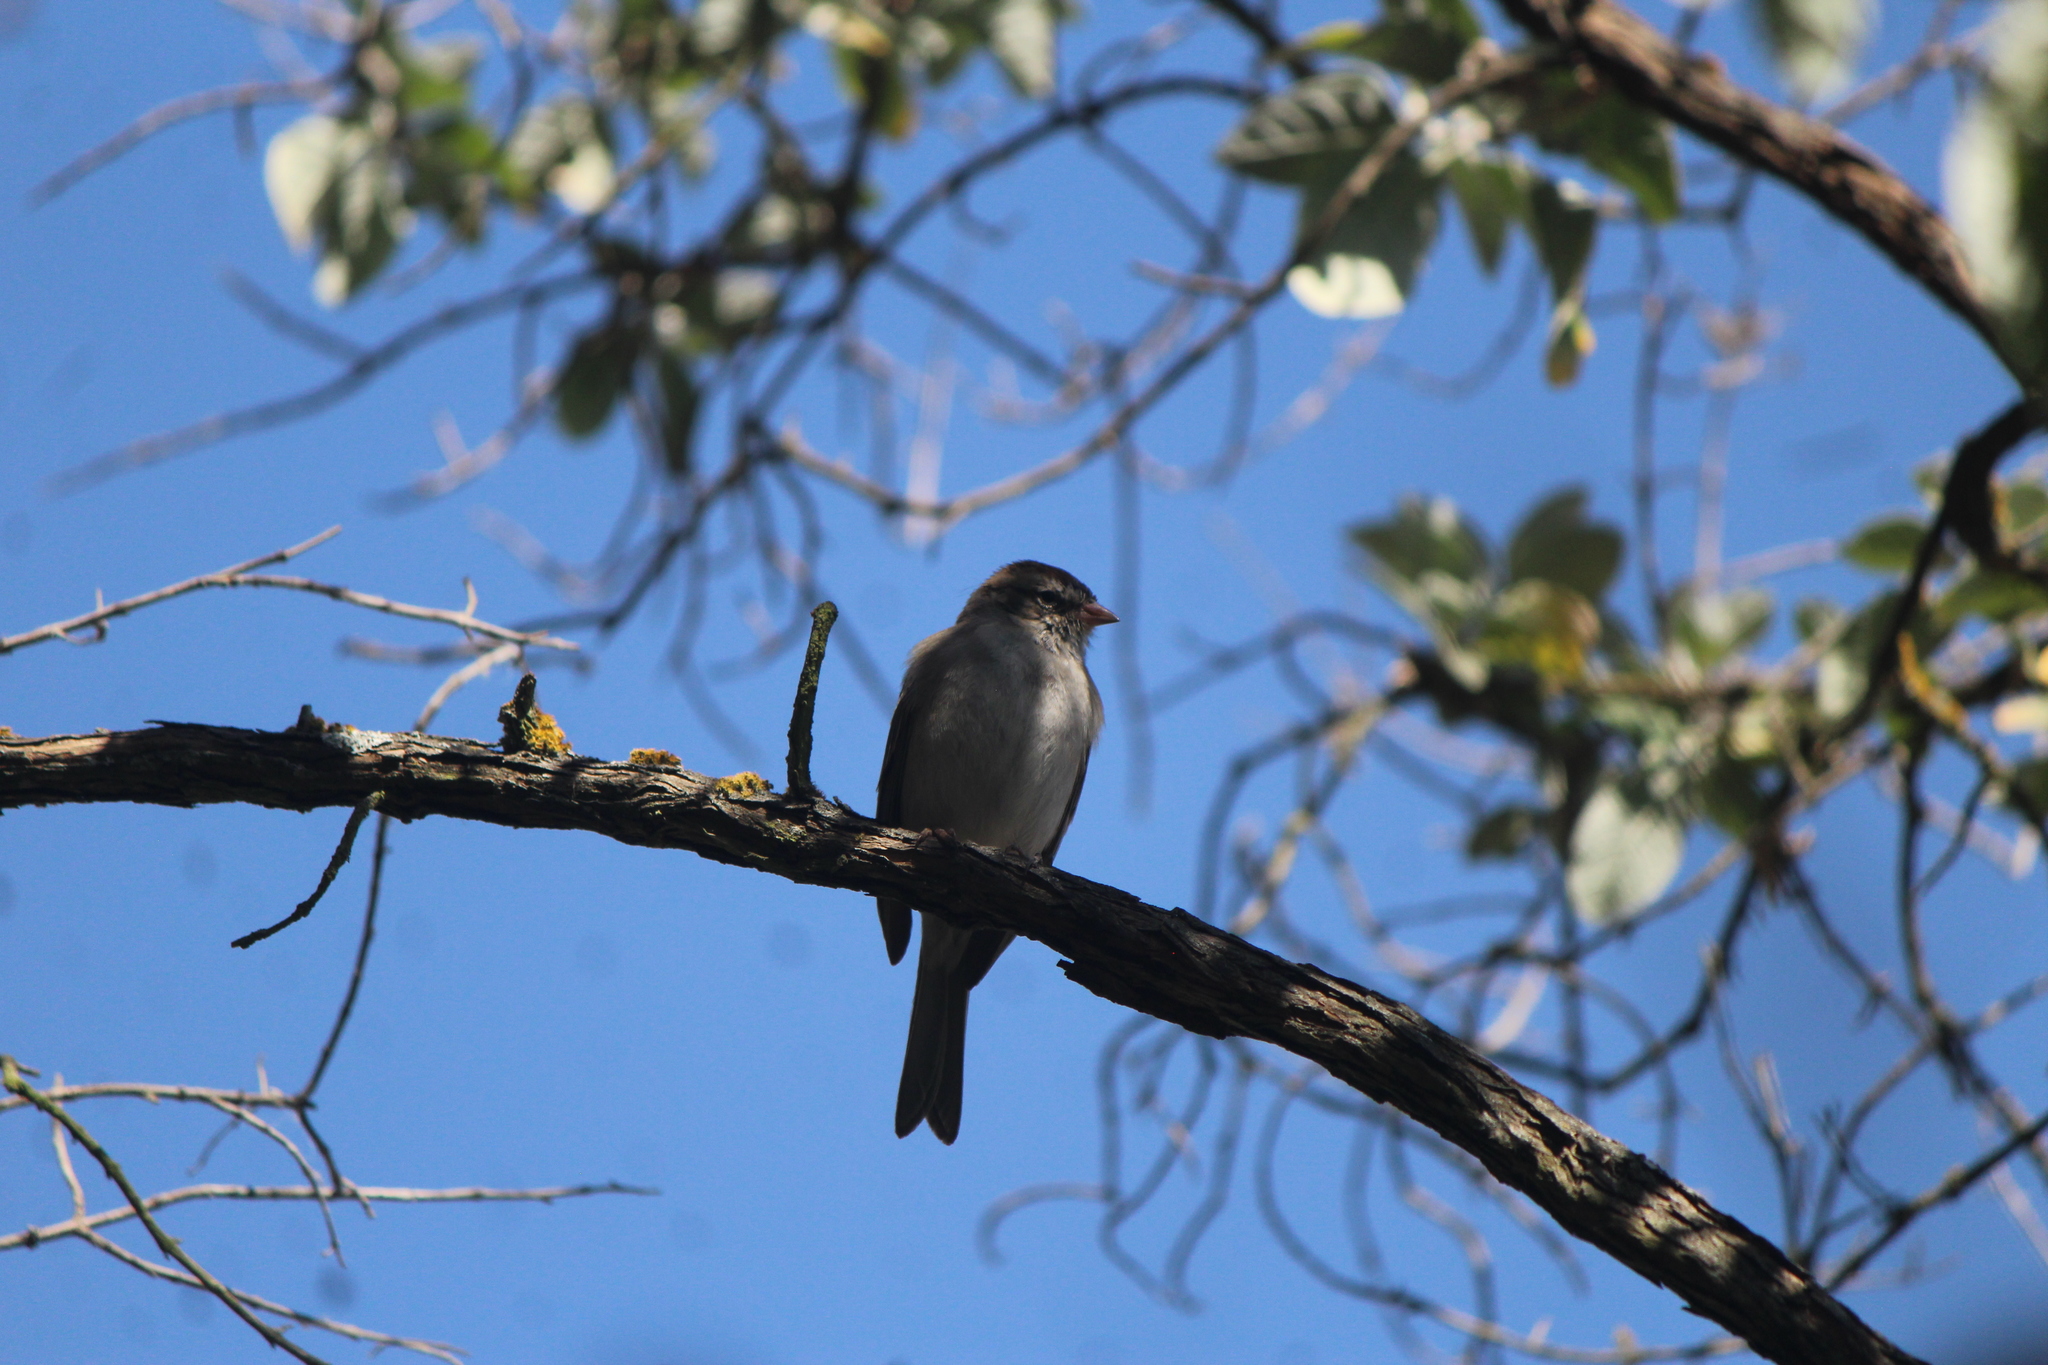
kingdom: Animalia
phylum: Chordata
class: Aves
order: Passeriformes
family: Passerellidae
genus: Spizella
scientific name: Spizella passerina
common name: Chipping sparrow
